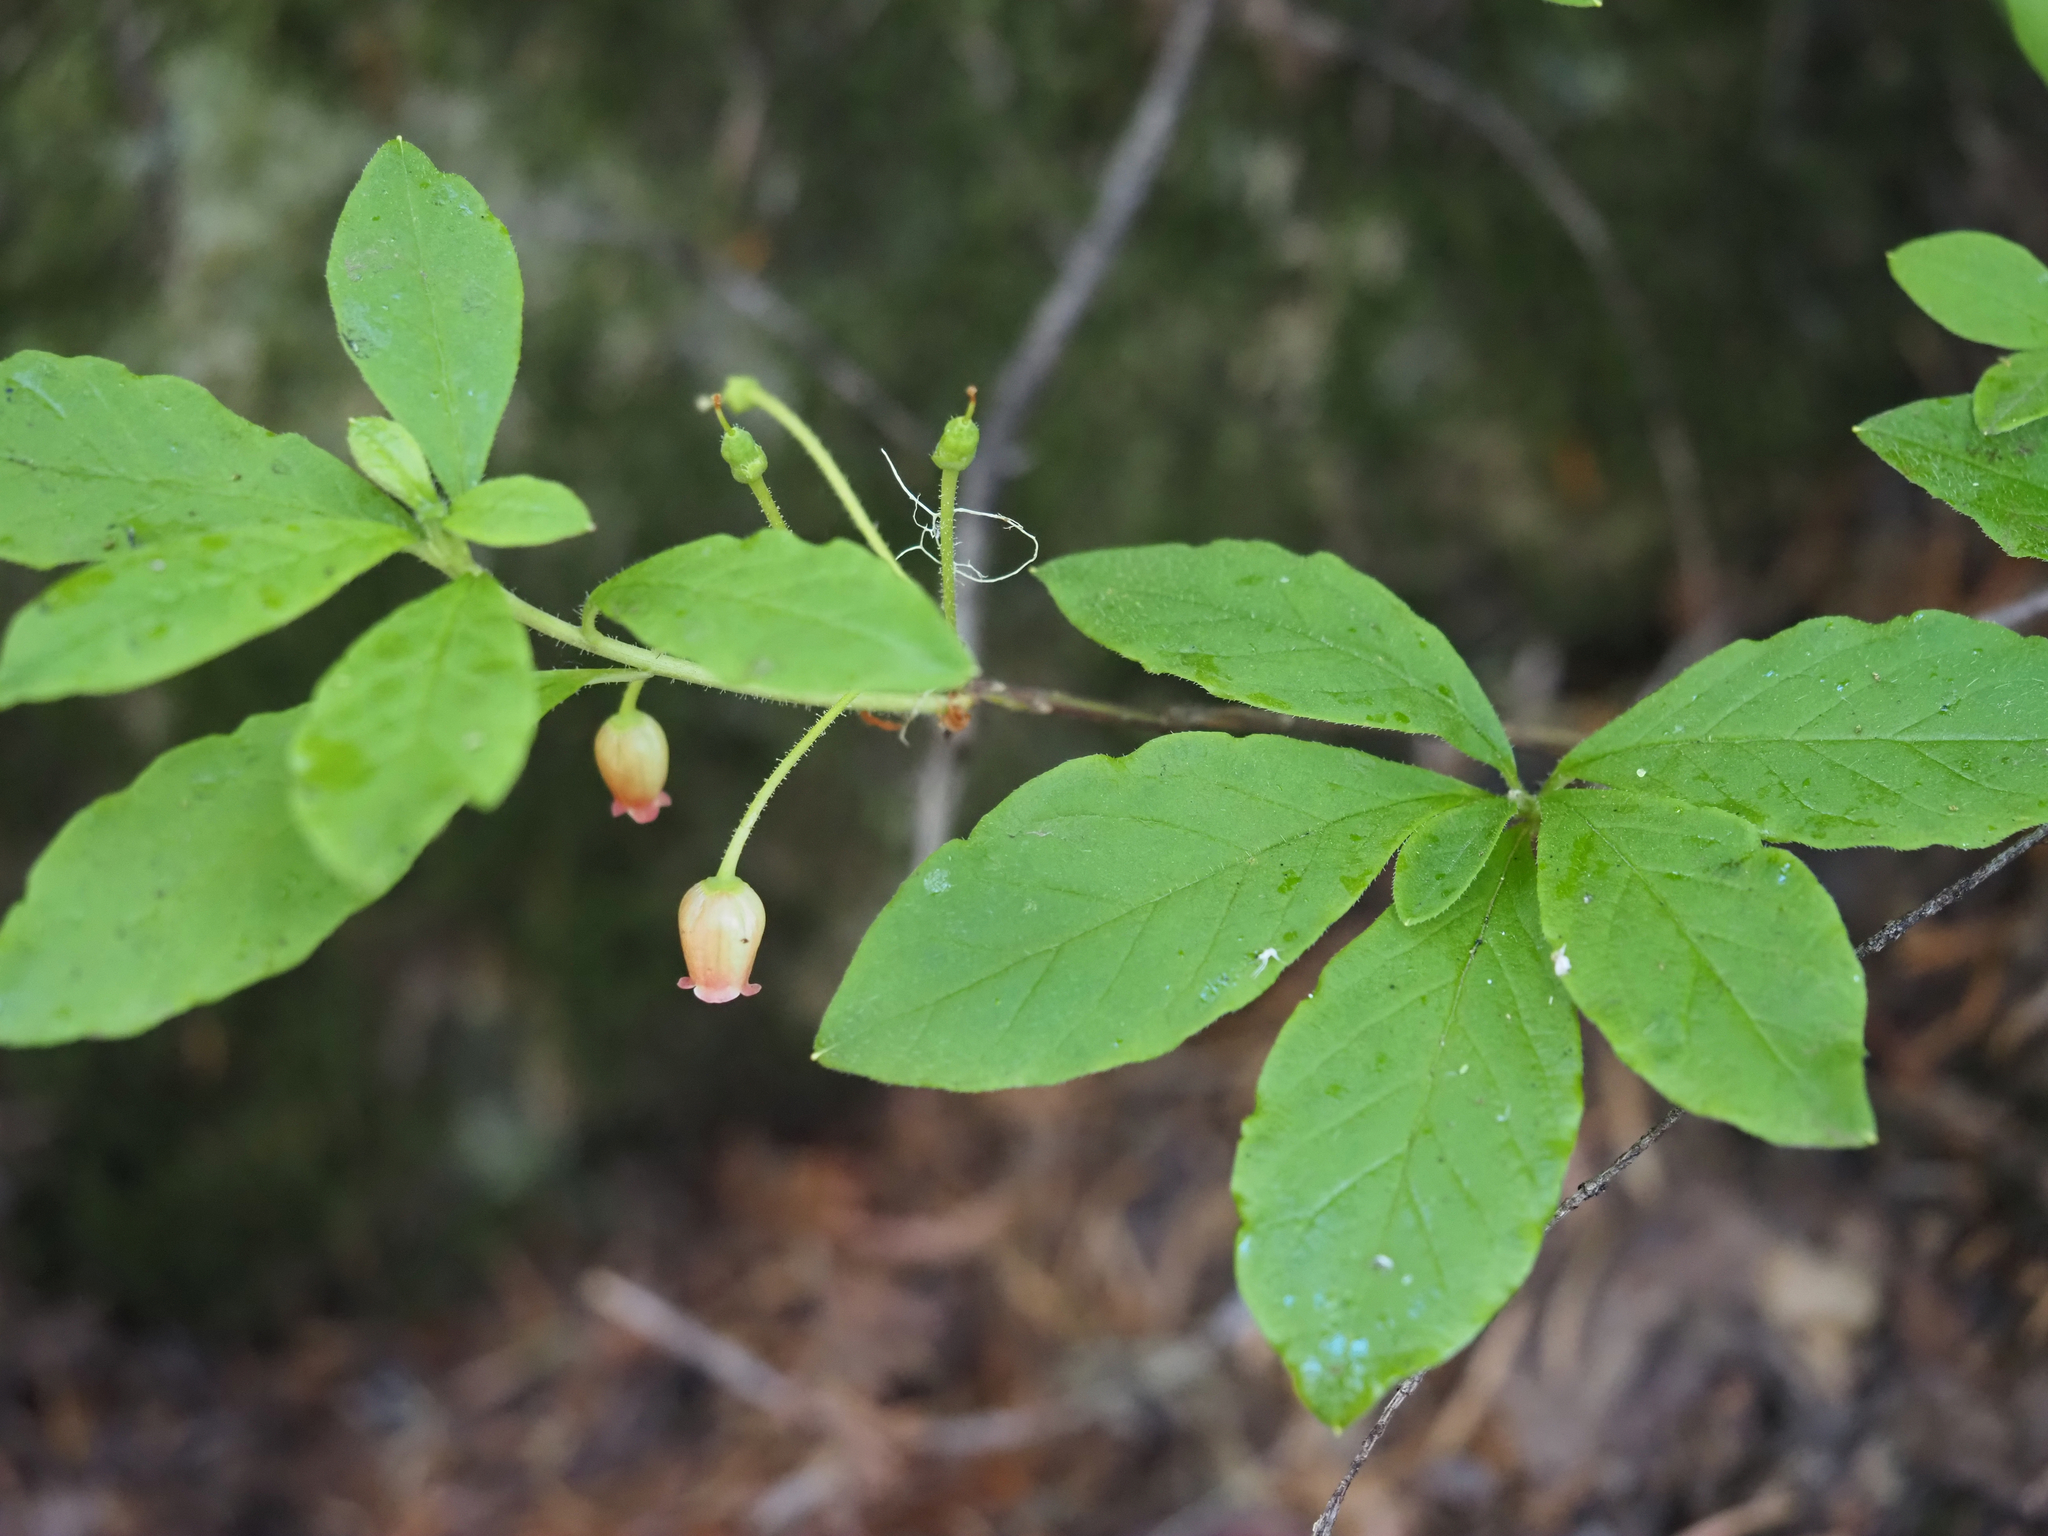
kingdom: Plantae
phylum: Tracheophyta
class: Magnoliopsida
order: Ericales
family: Ericaceae
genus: Rhododendron
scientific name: Rhododendron menziesii
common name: Pacific menziesia
